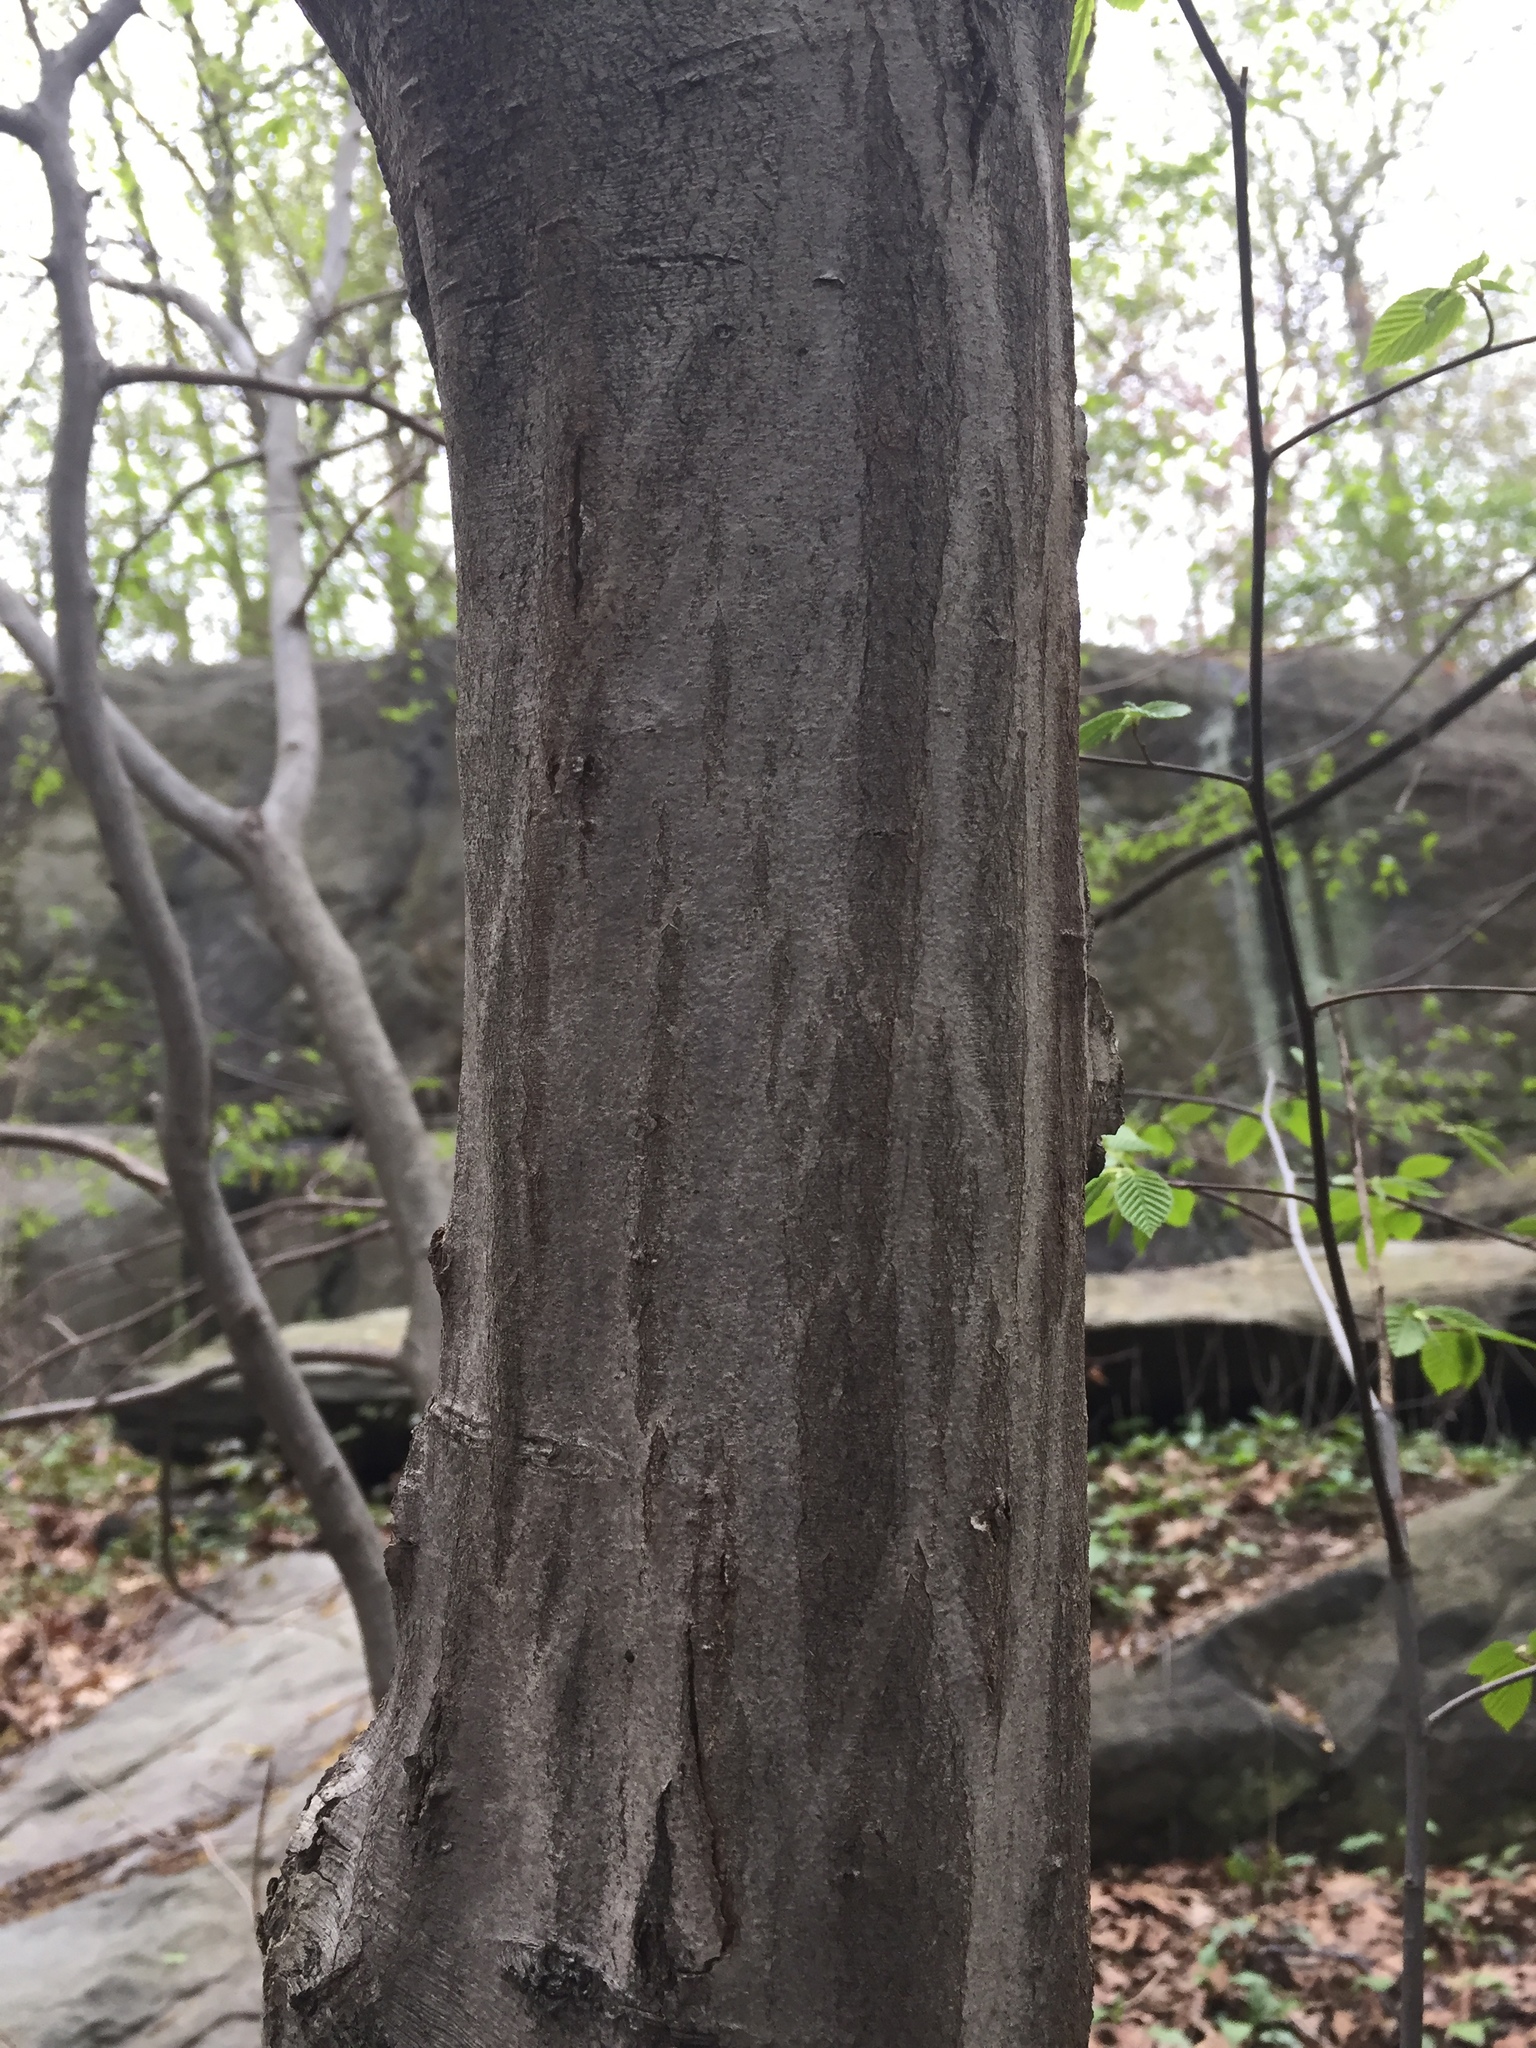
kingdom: Plantae
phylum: Tracheophyta
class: Magnoliopsida
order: Fagales
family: Betulaceae
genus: Carpinus
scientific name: Carpinus caroliniana
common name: American hornbeam
